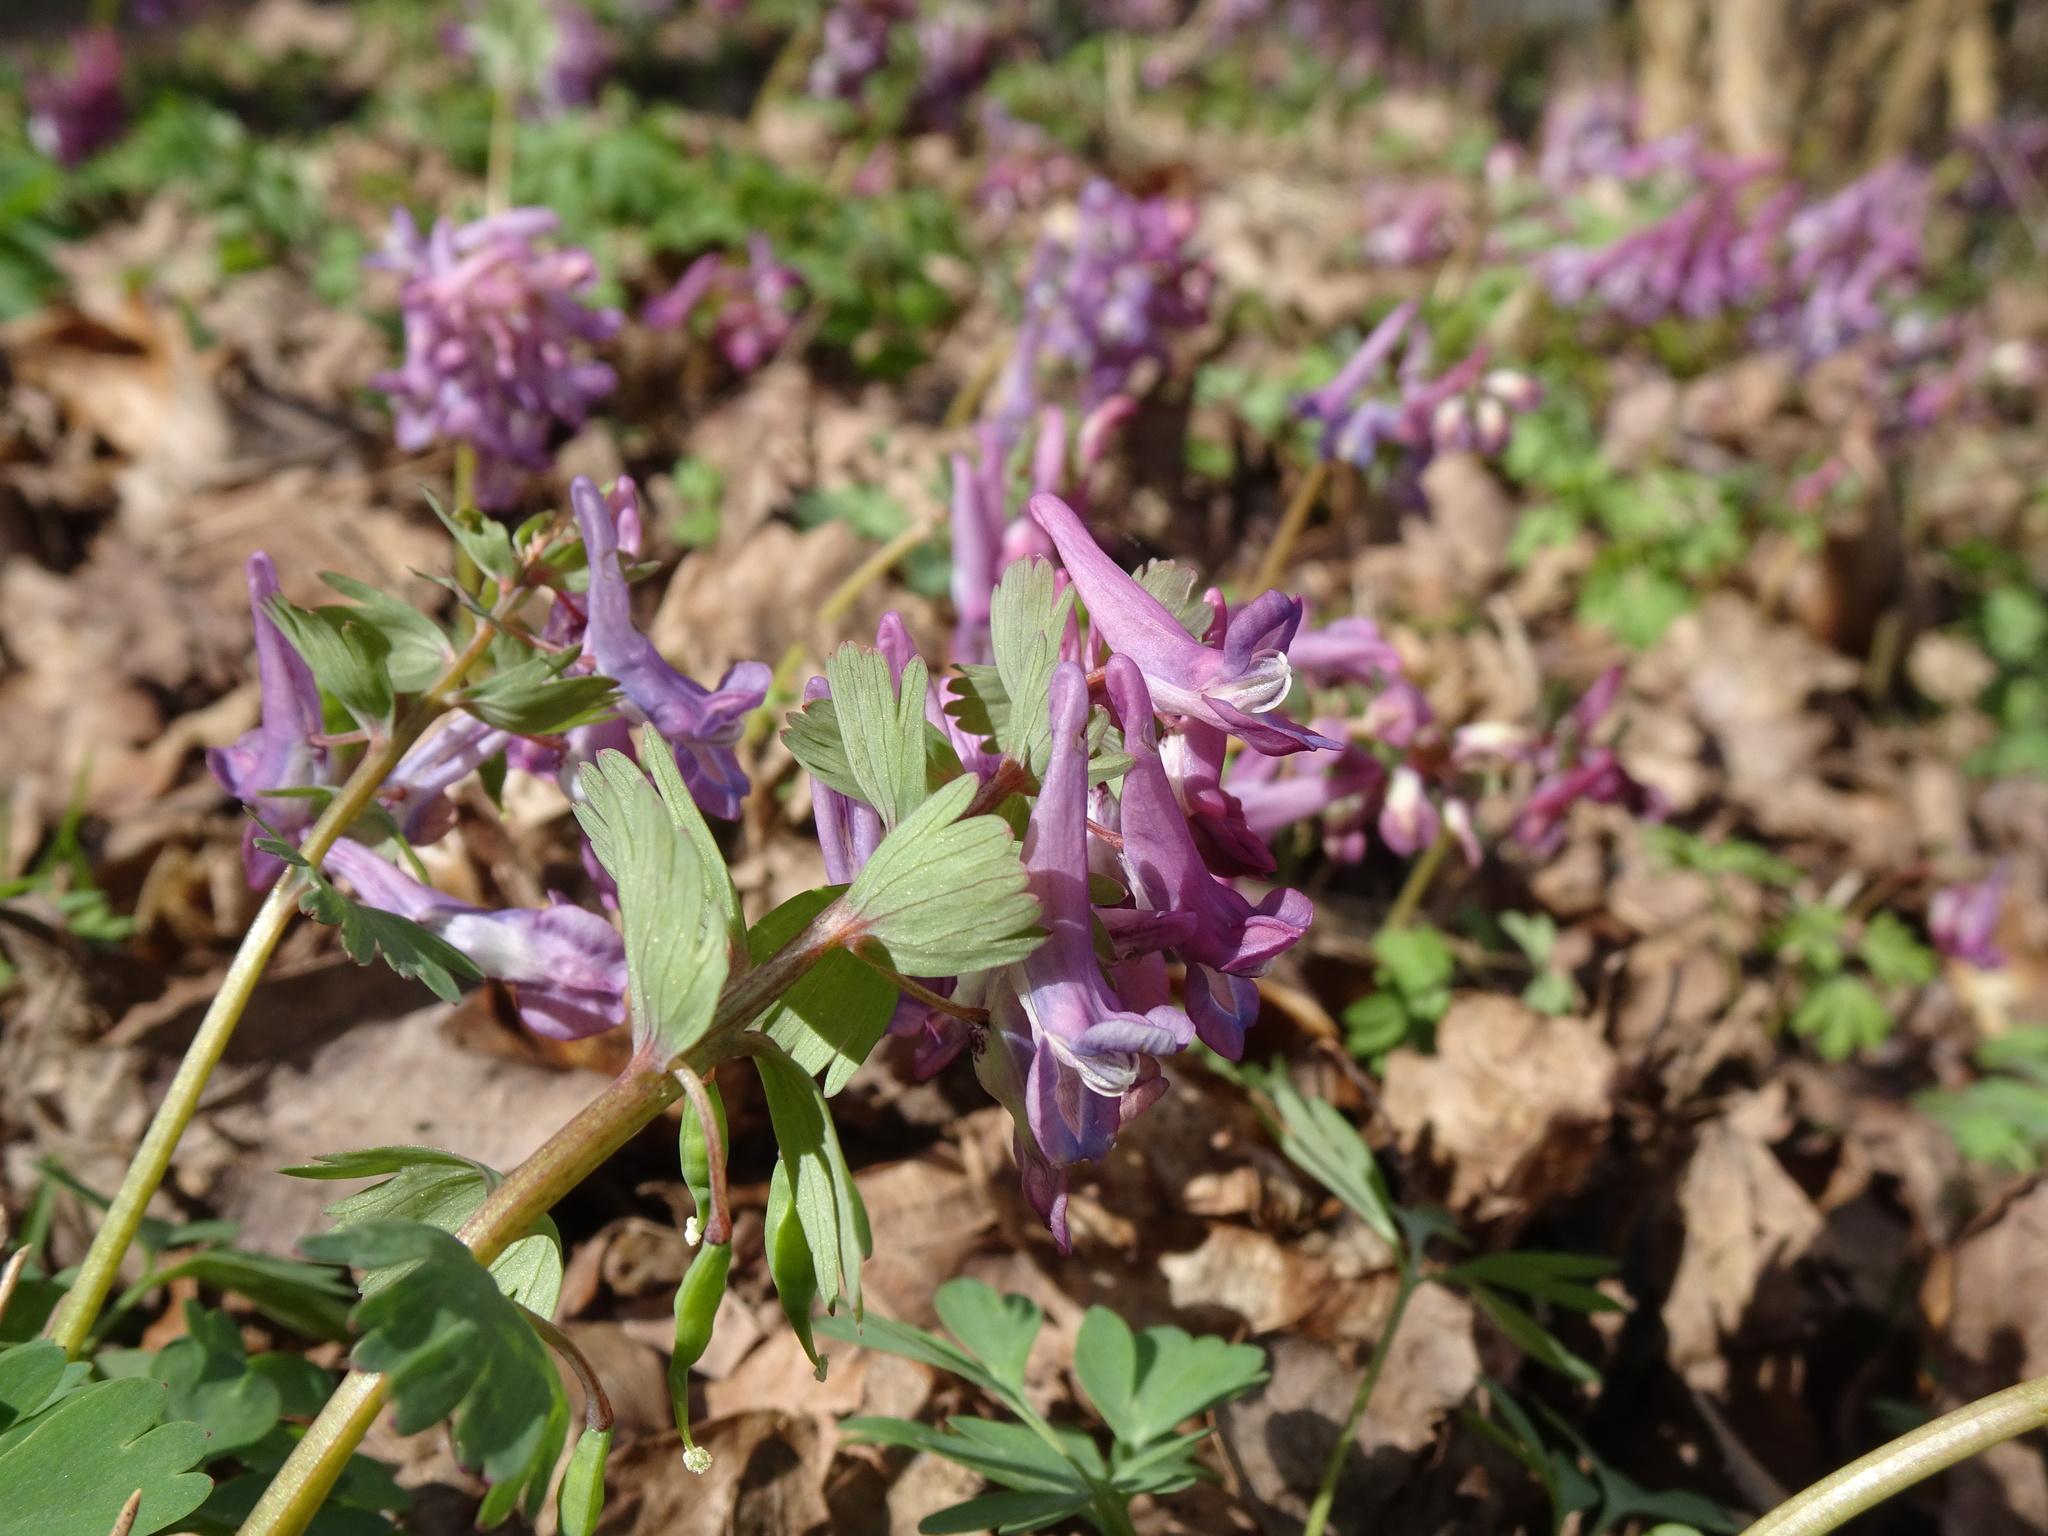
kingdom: Plantae
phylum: Tracheophyta
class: Magnoliopsida
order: Ranunculales
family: Papaveraceae
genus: Corydalis
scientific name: Corydalis solida
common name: Bird-in-a-bush
